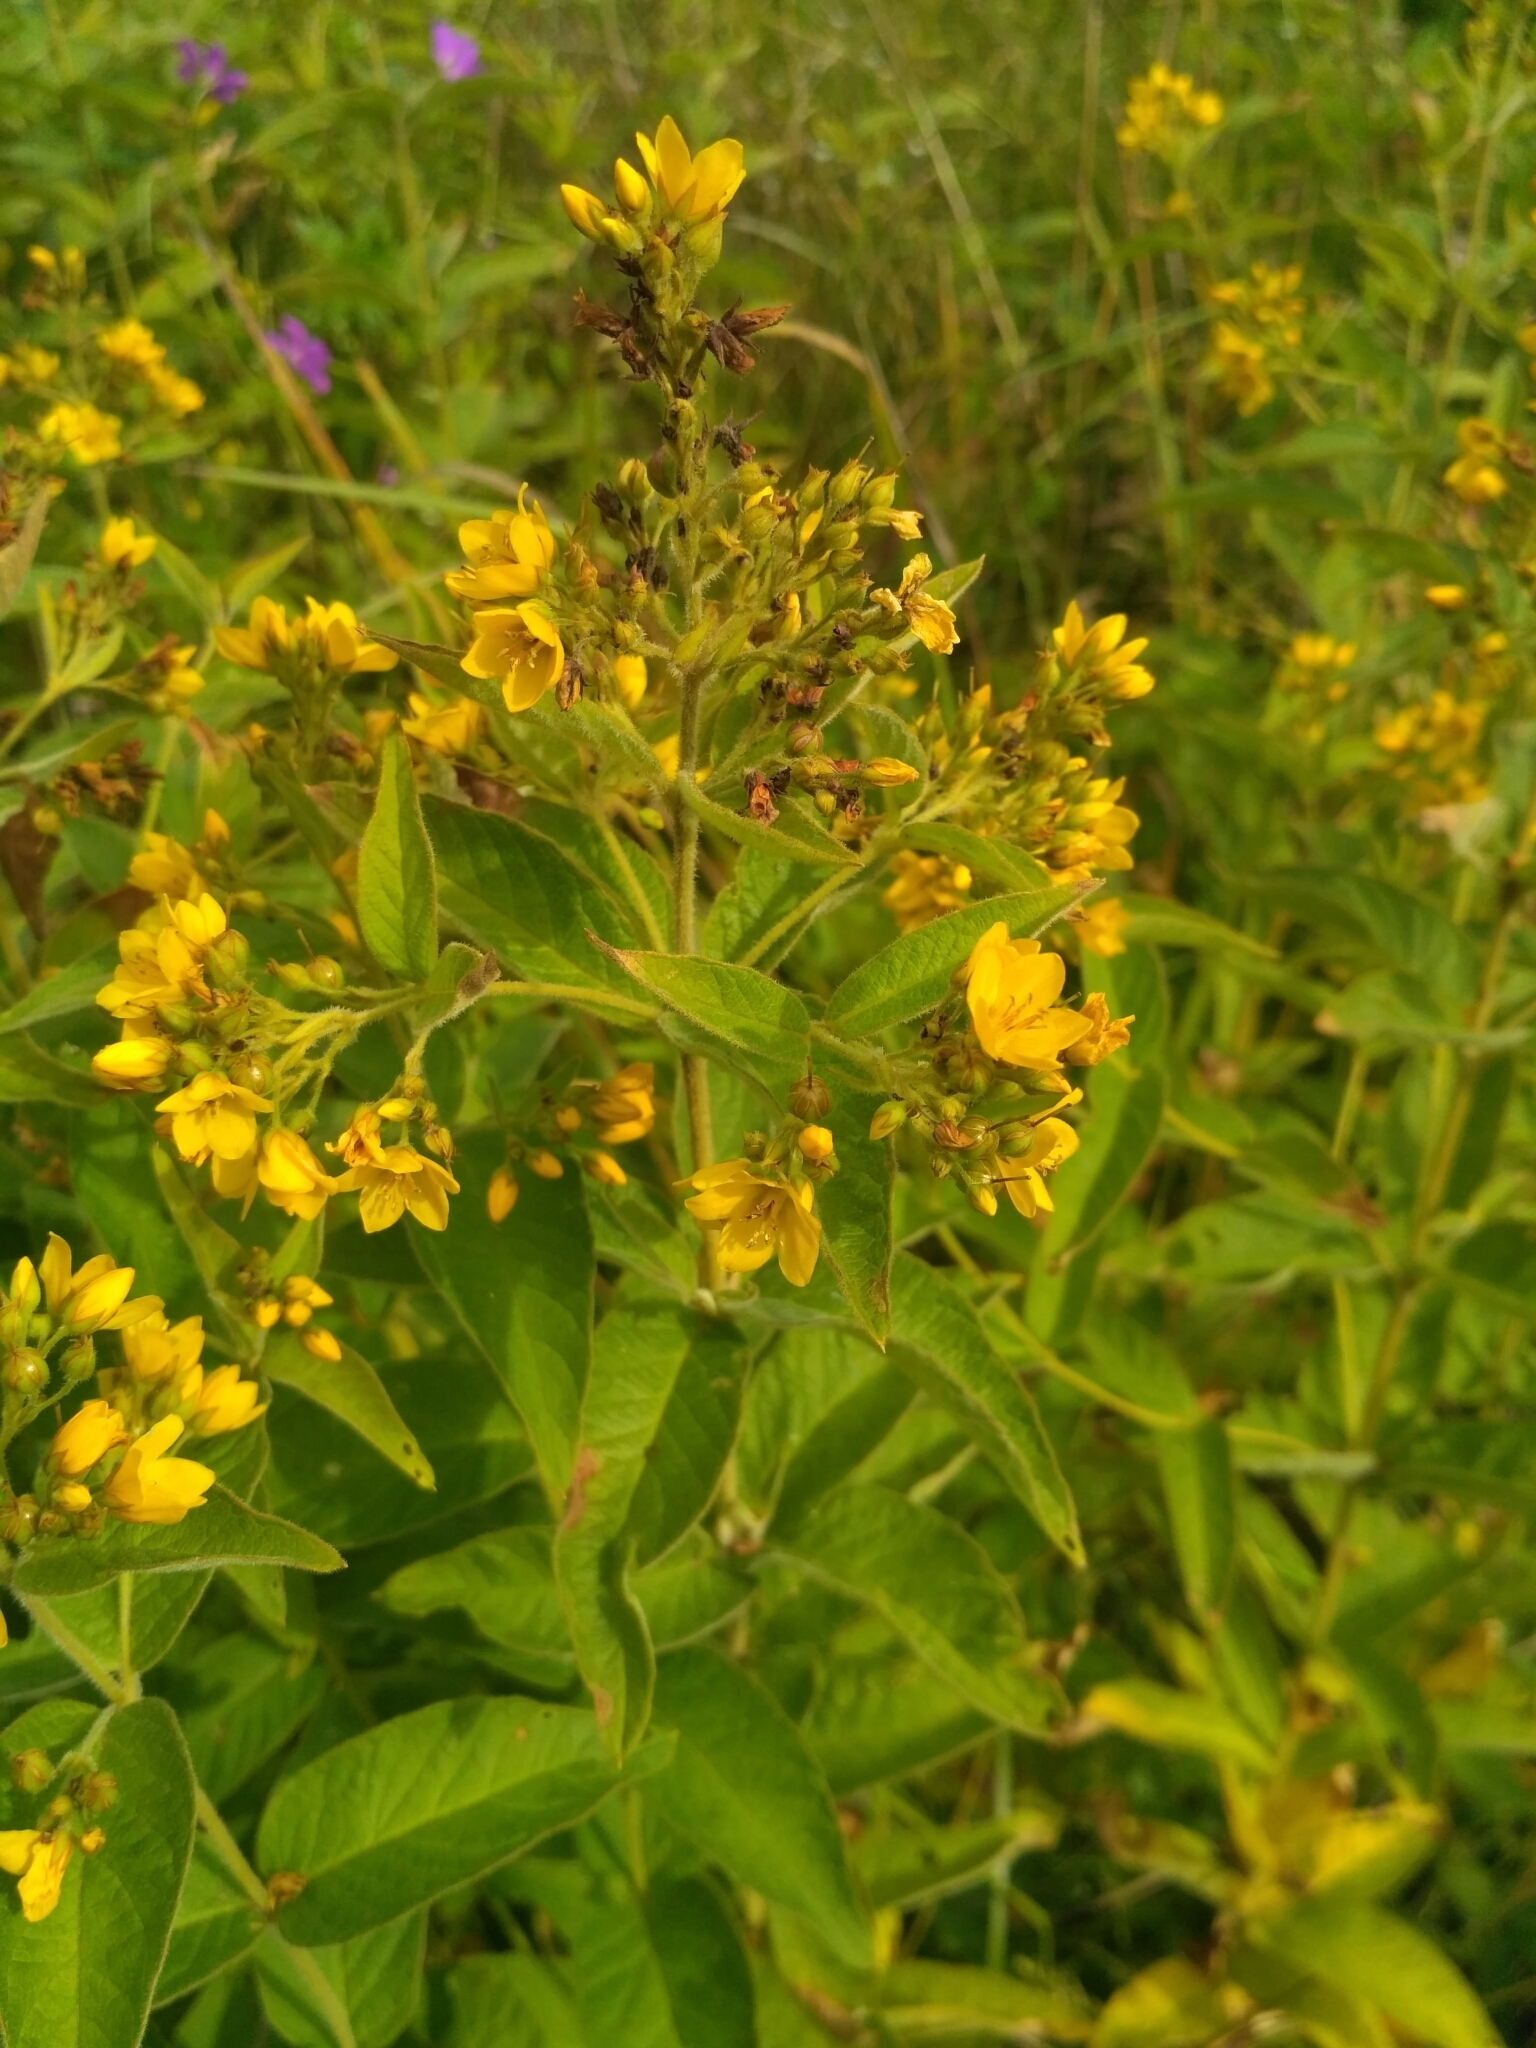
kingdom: Plantae
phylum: Tracheophyta
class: Magnoliopsida
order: Ericales
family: Primulaceae
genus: Lysimachia
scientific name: Lysimachia vulgaris
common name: Yellow loosestrife
